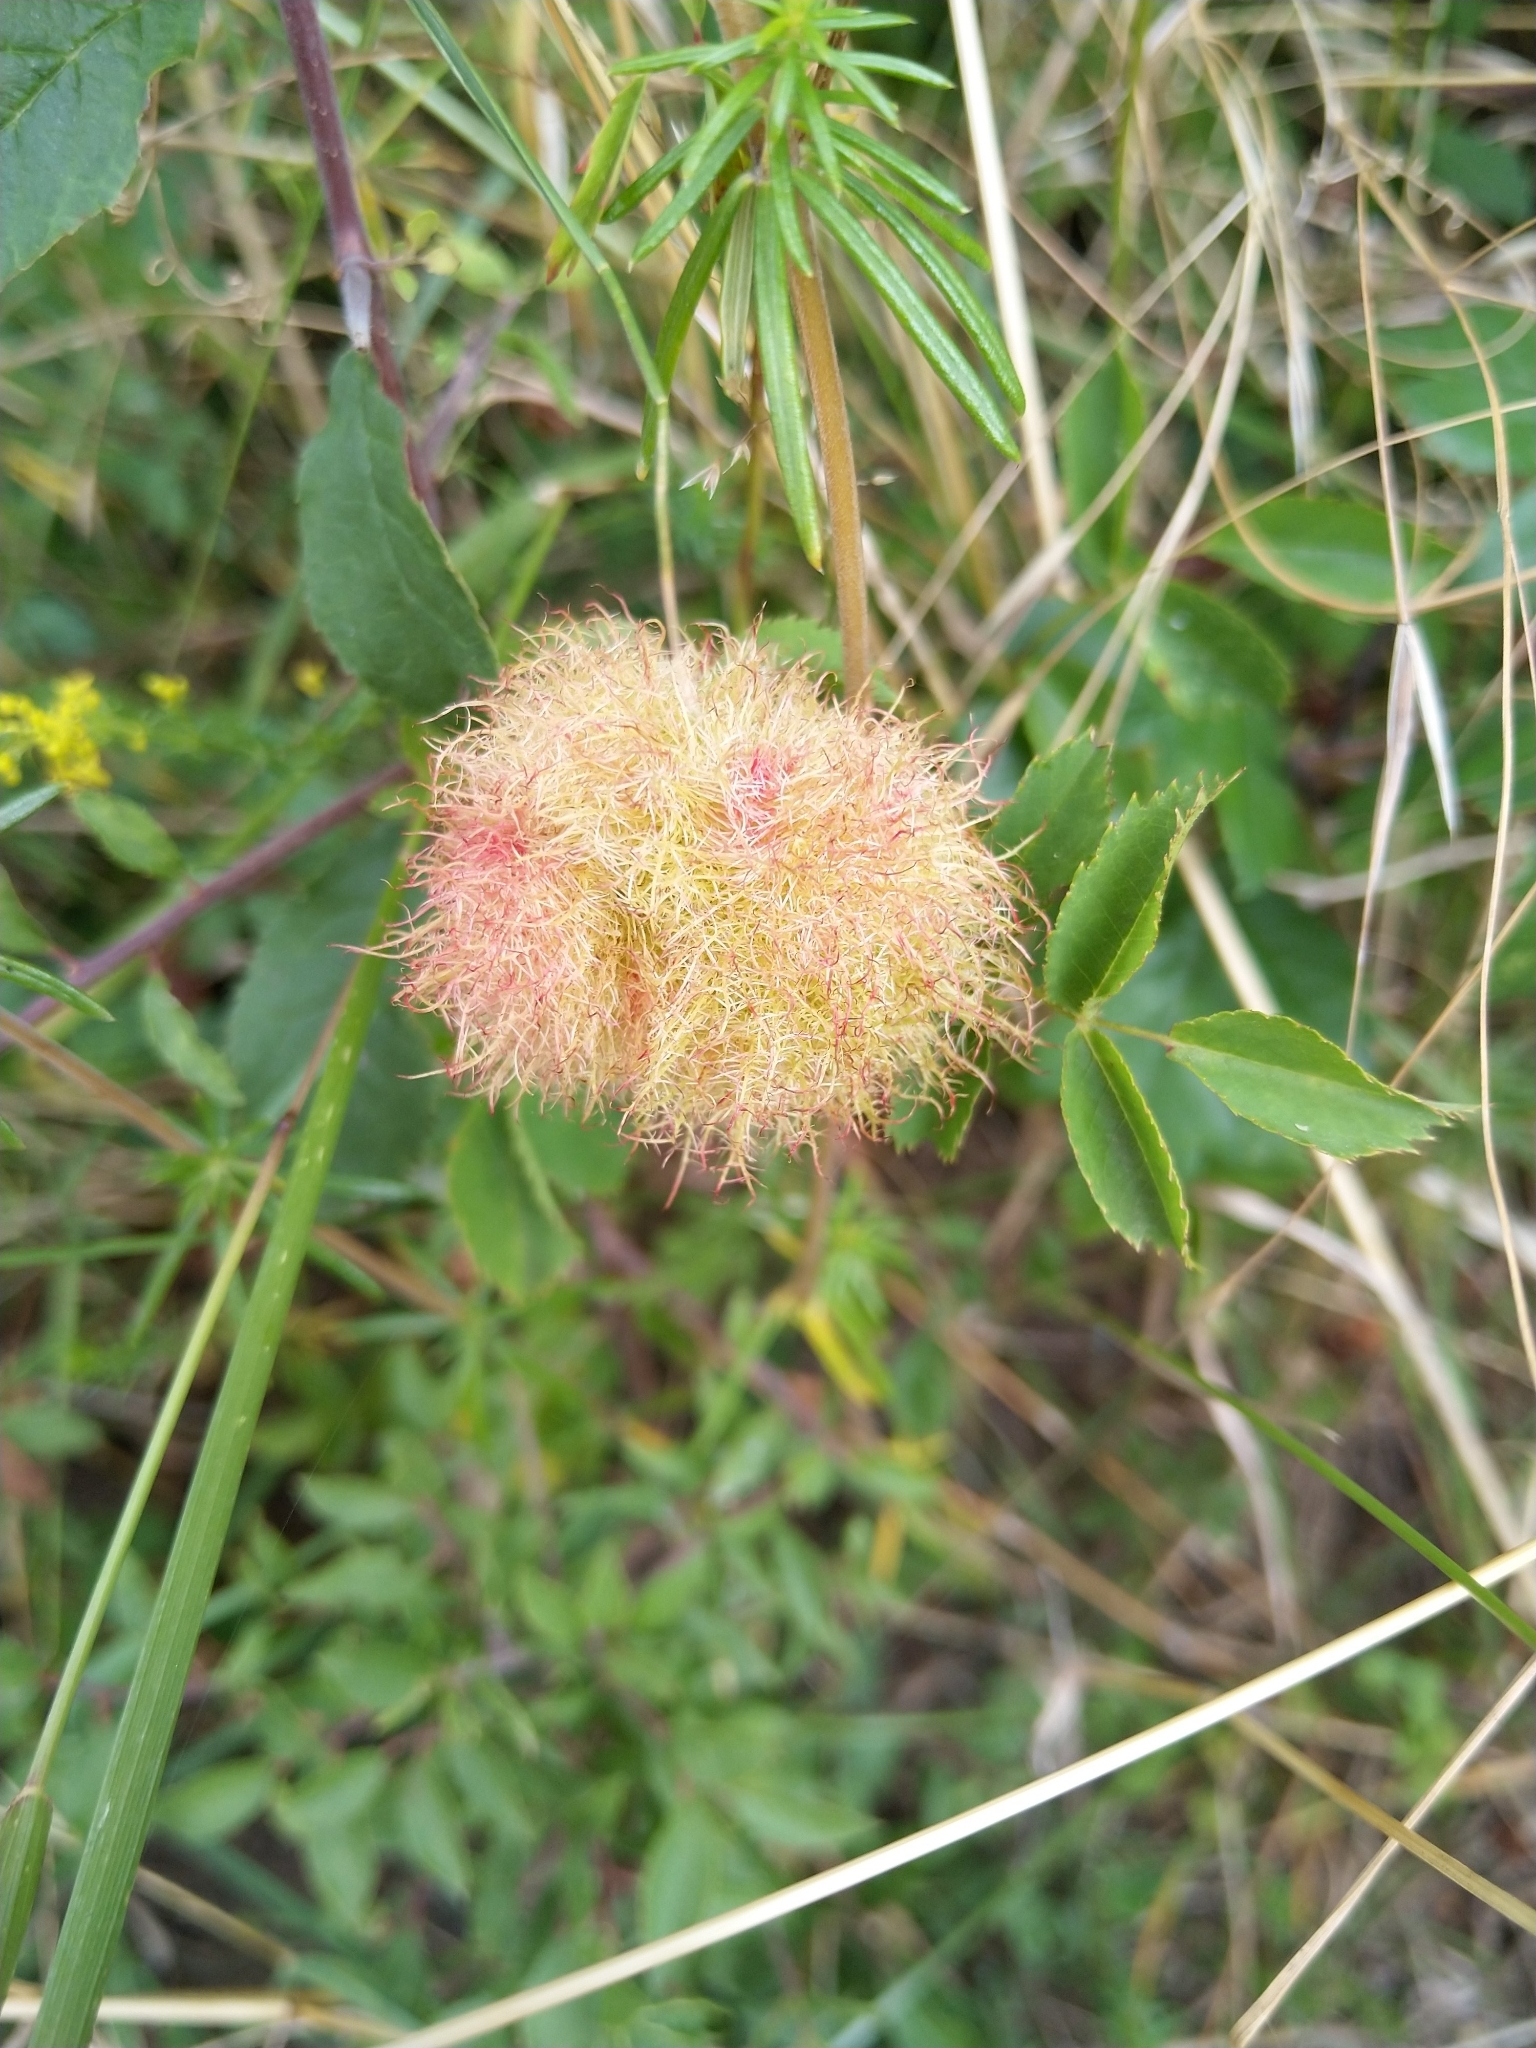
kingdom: Animalia
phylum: Arthropoda
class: Insecta
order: Hymenoptera
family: Cynipidae
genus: Diplolepis
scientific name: Diplolepis rosae
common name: Bedeguar gall
